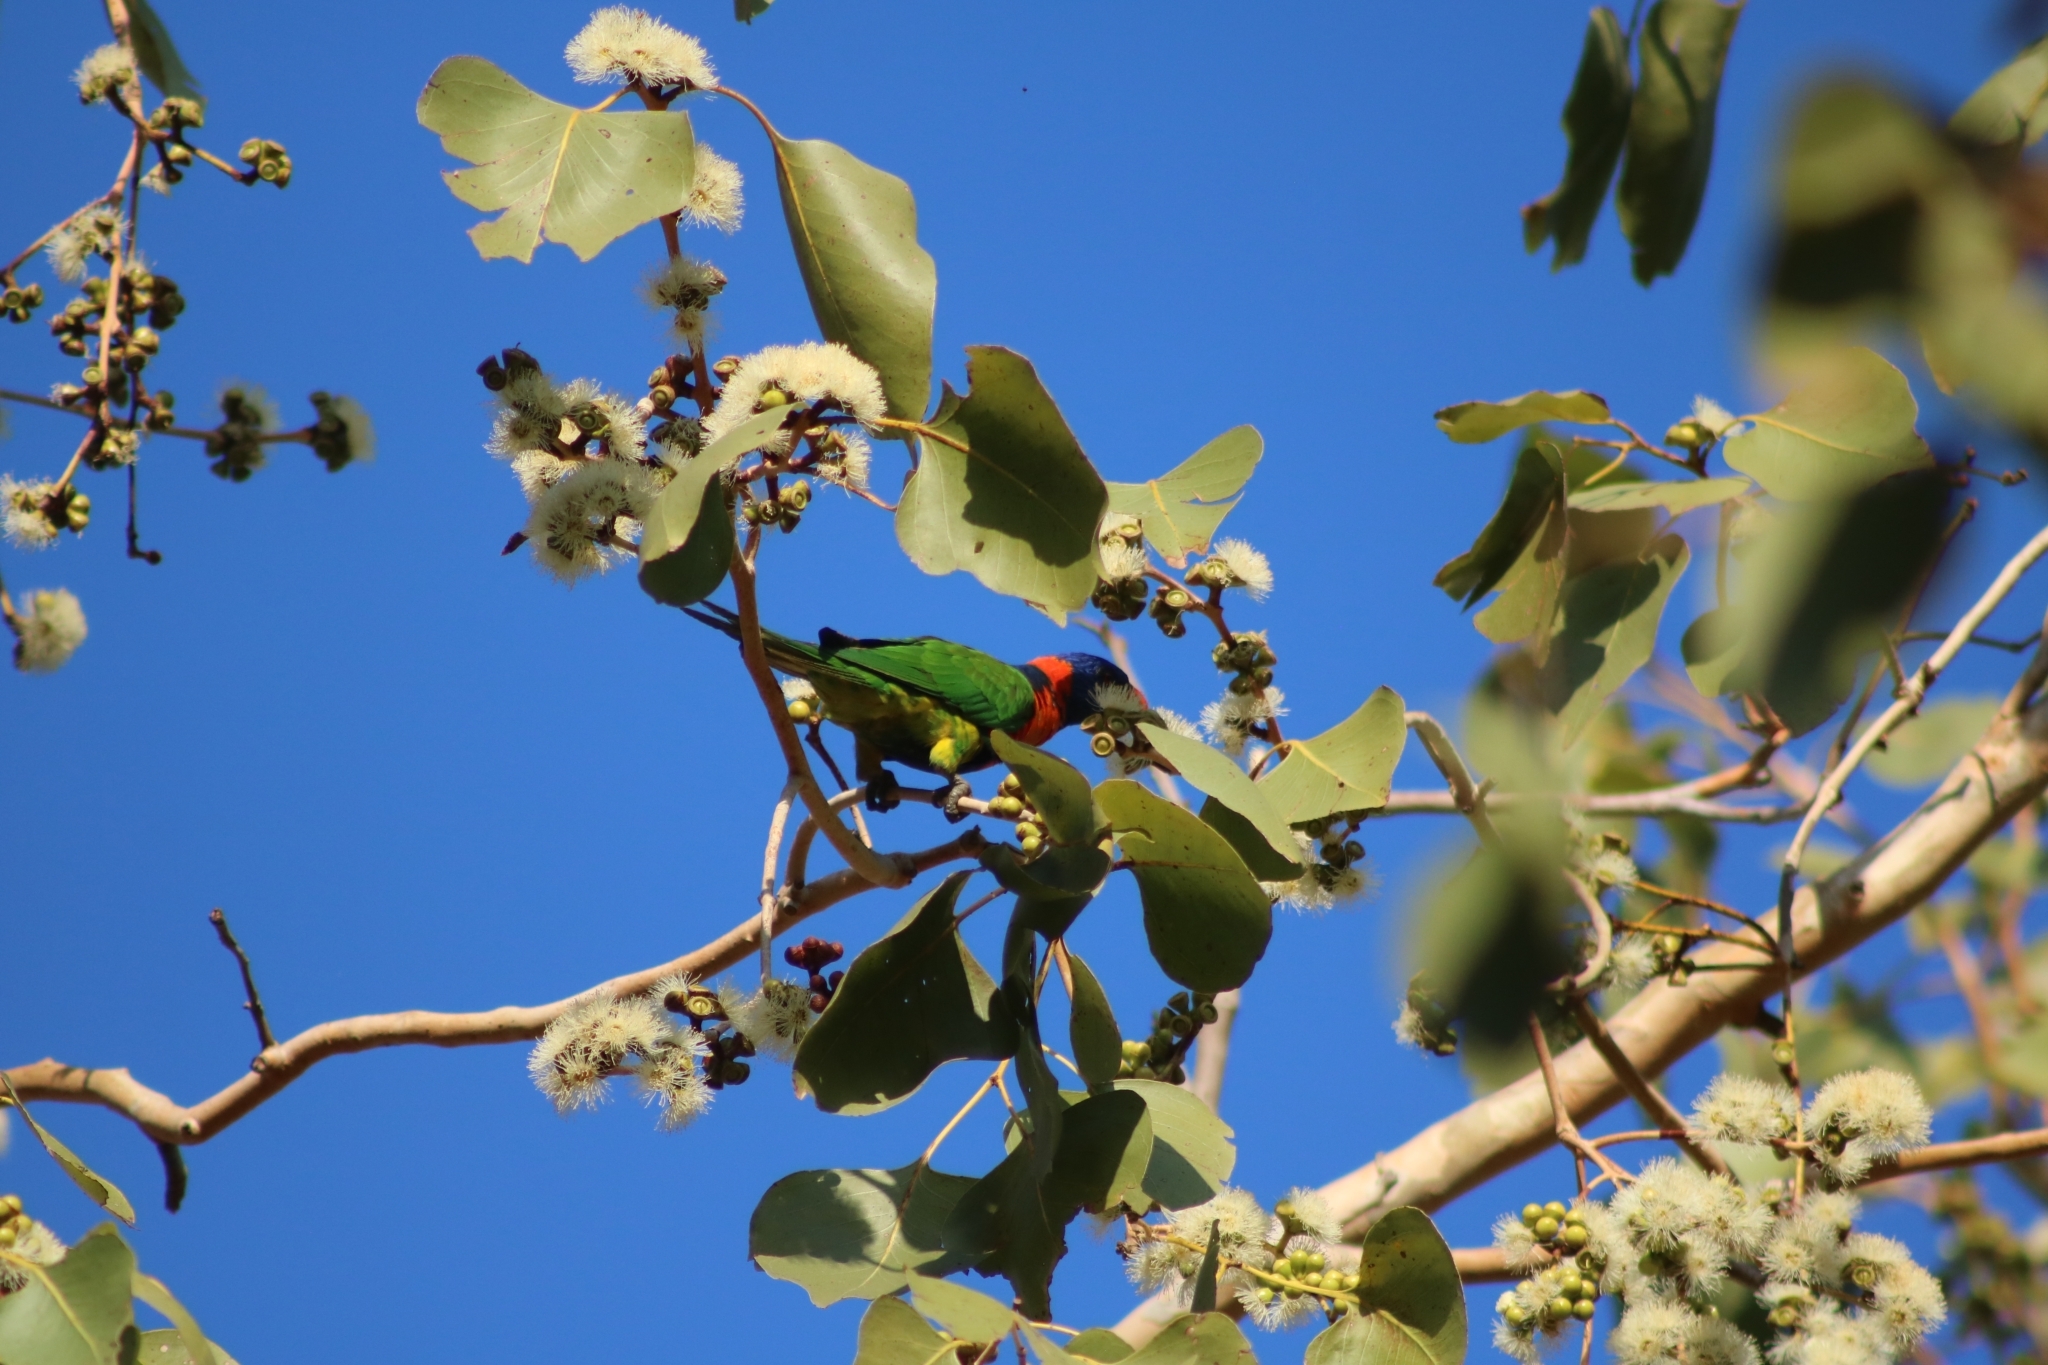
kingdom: Animalia
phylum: Chordata
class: Aves
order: Psittaciformes
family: Psittacidae
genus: Trichoglossus
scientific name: Trichoglossus rubritorquis
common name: Red-collared lorikeet
